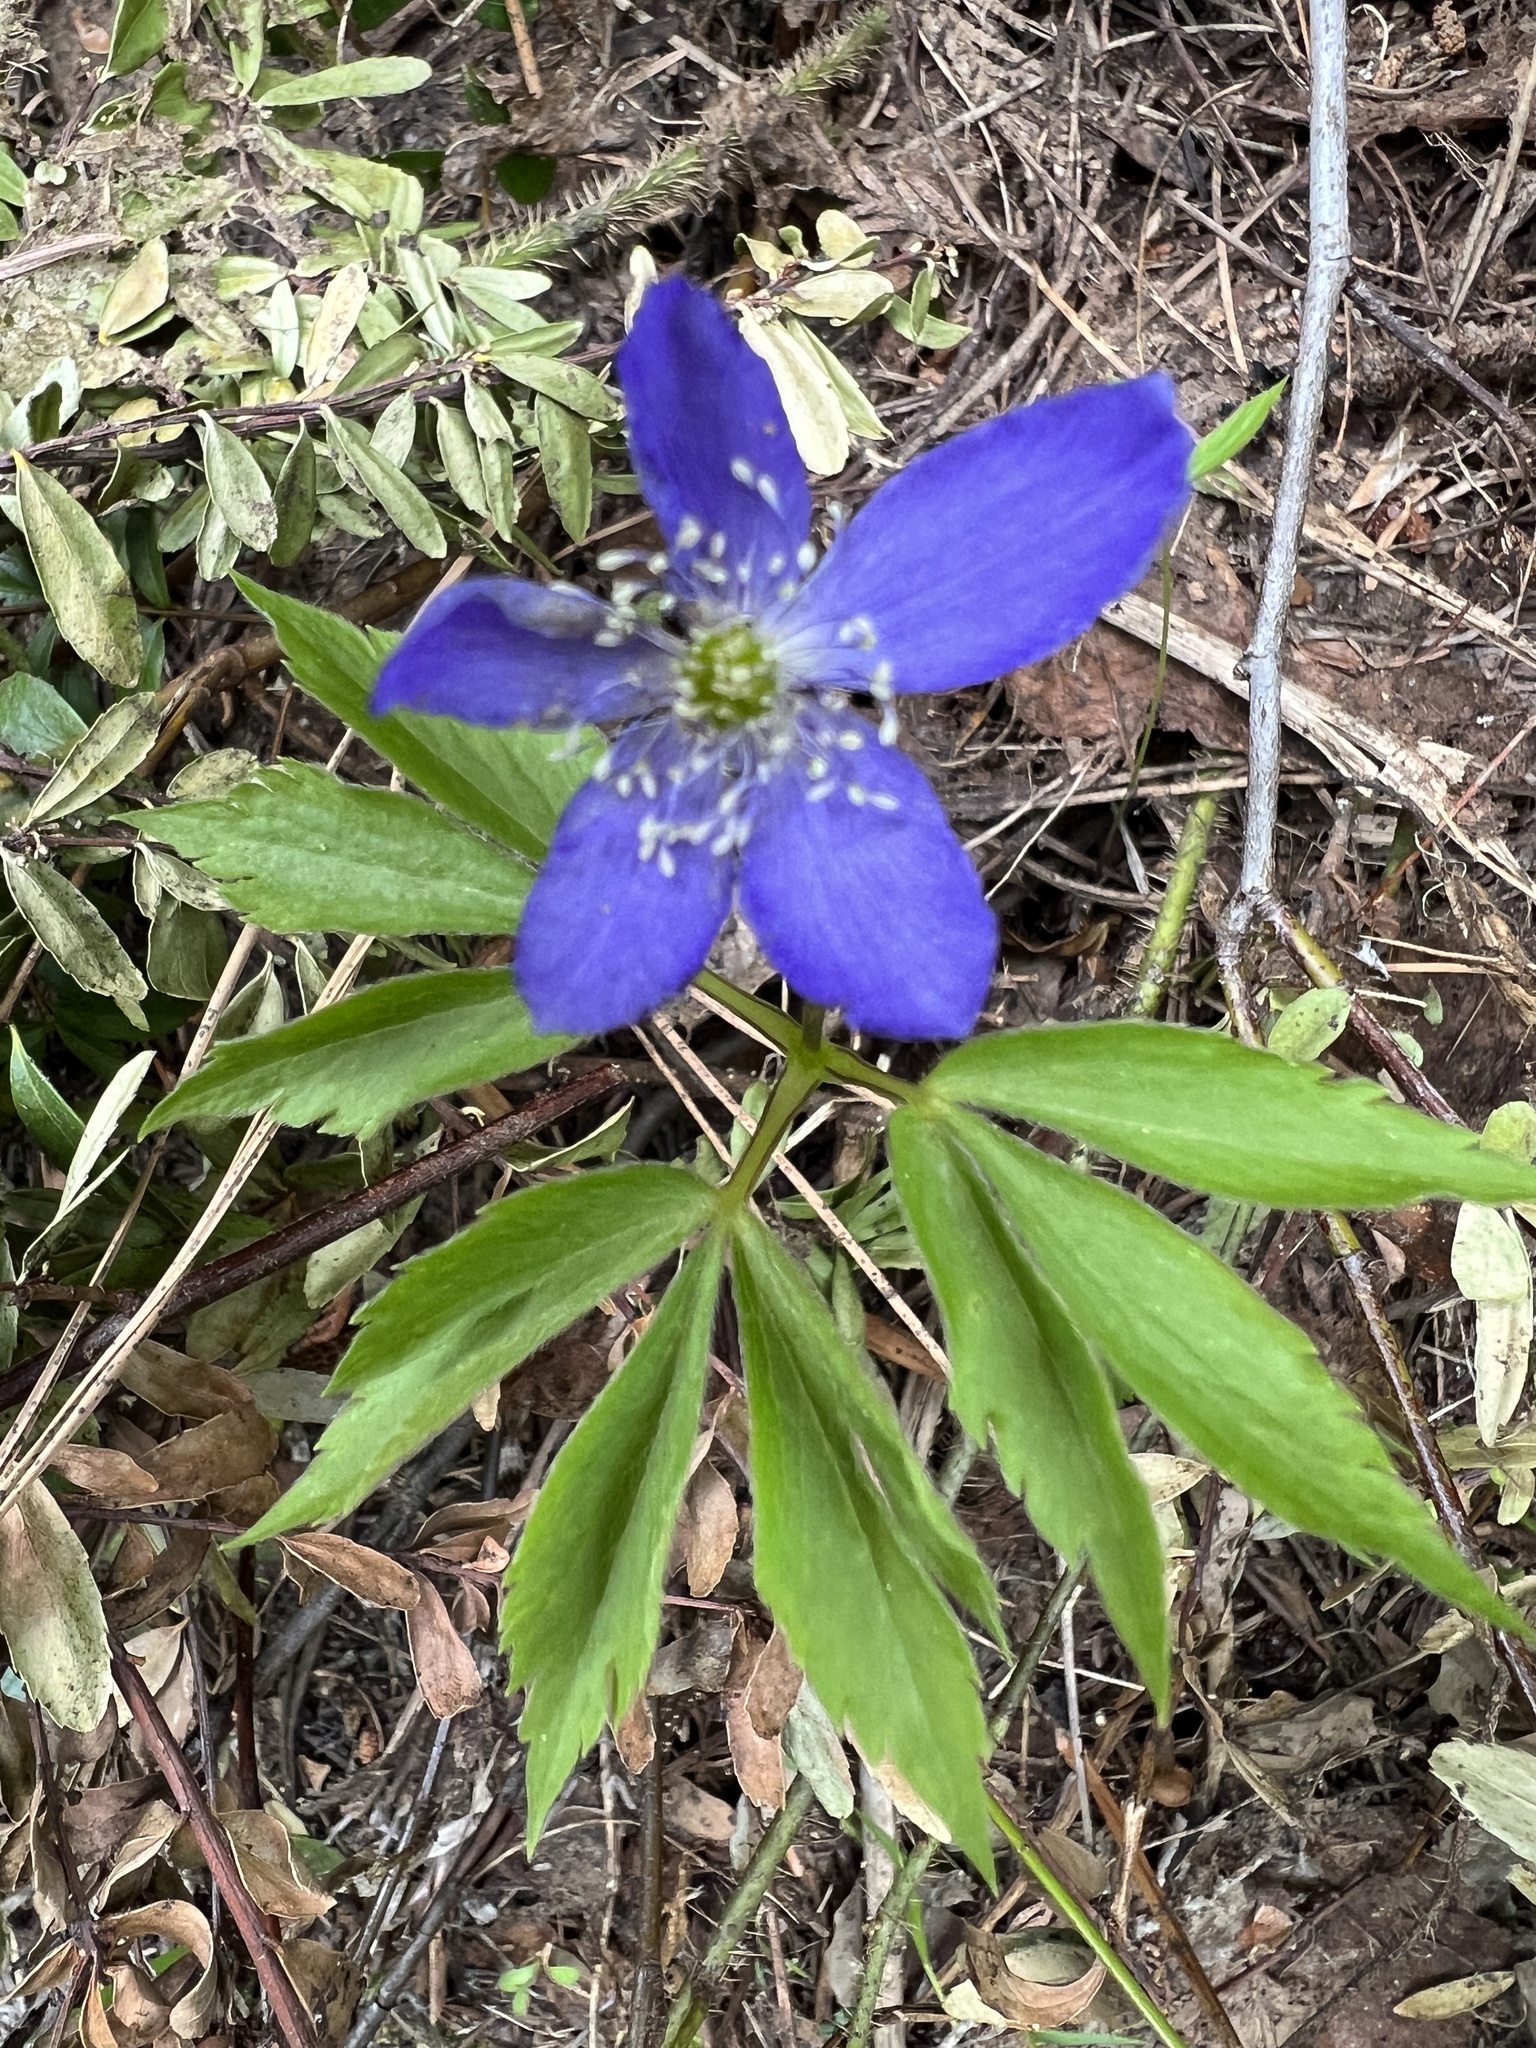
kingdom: Plantae
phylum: Tracheophyta
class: Magnoliopsida
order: Ranunculales
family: Ranunculaceae
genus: Anemone
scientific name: Anemone oregana
